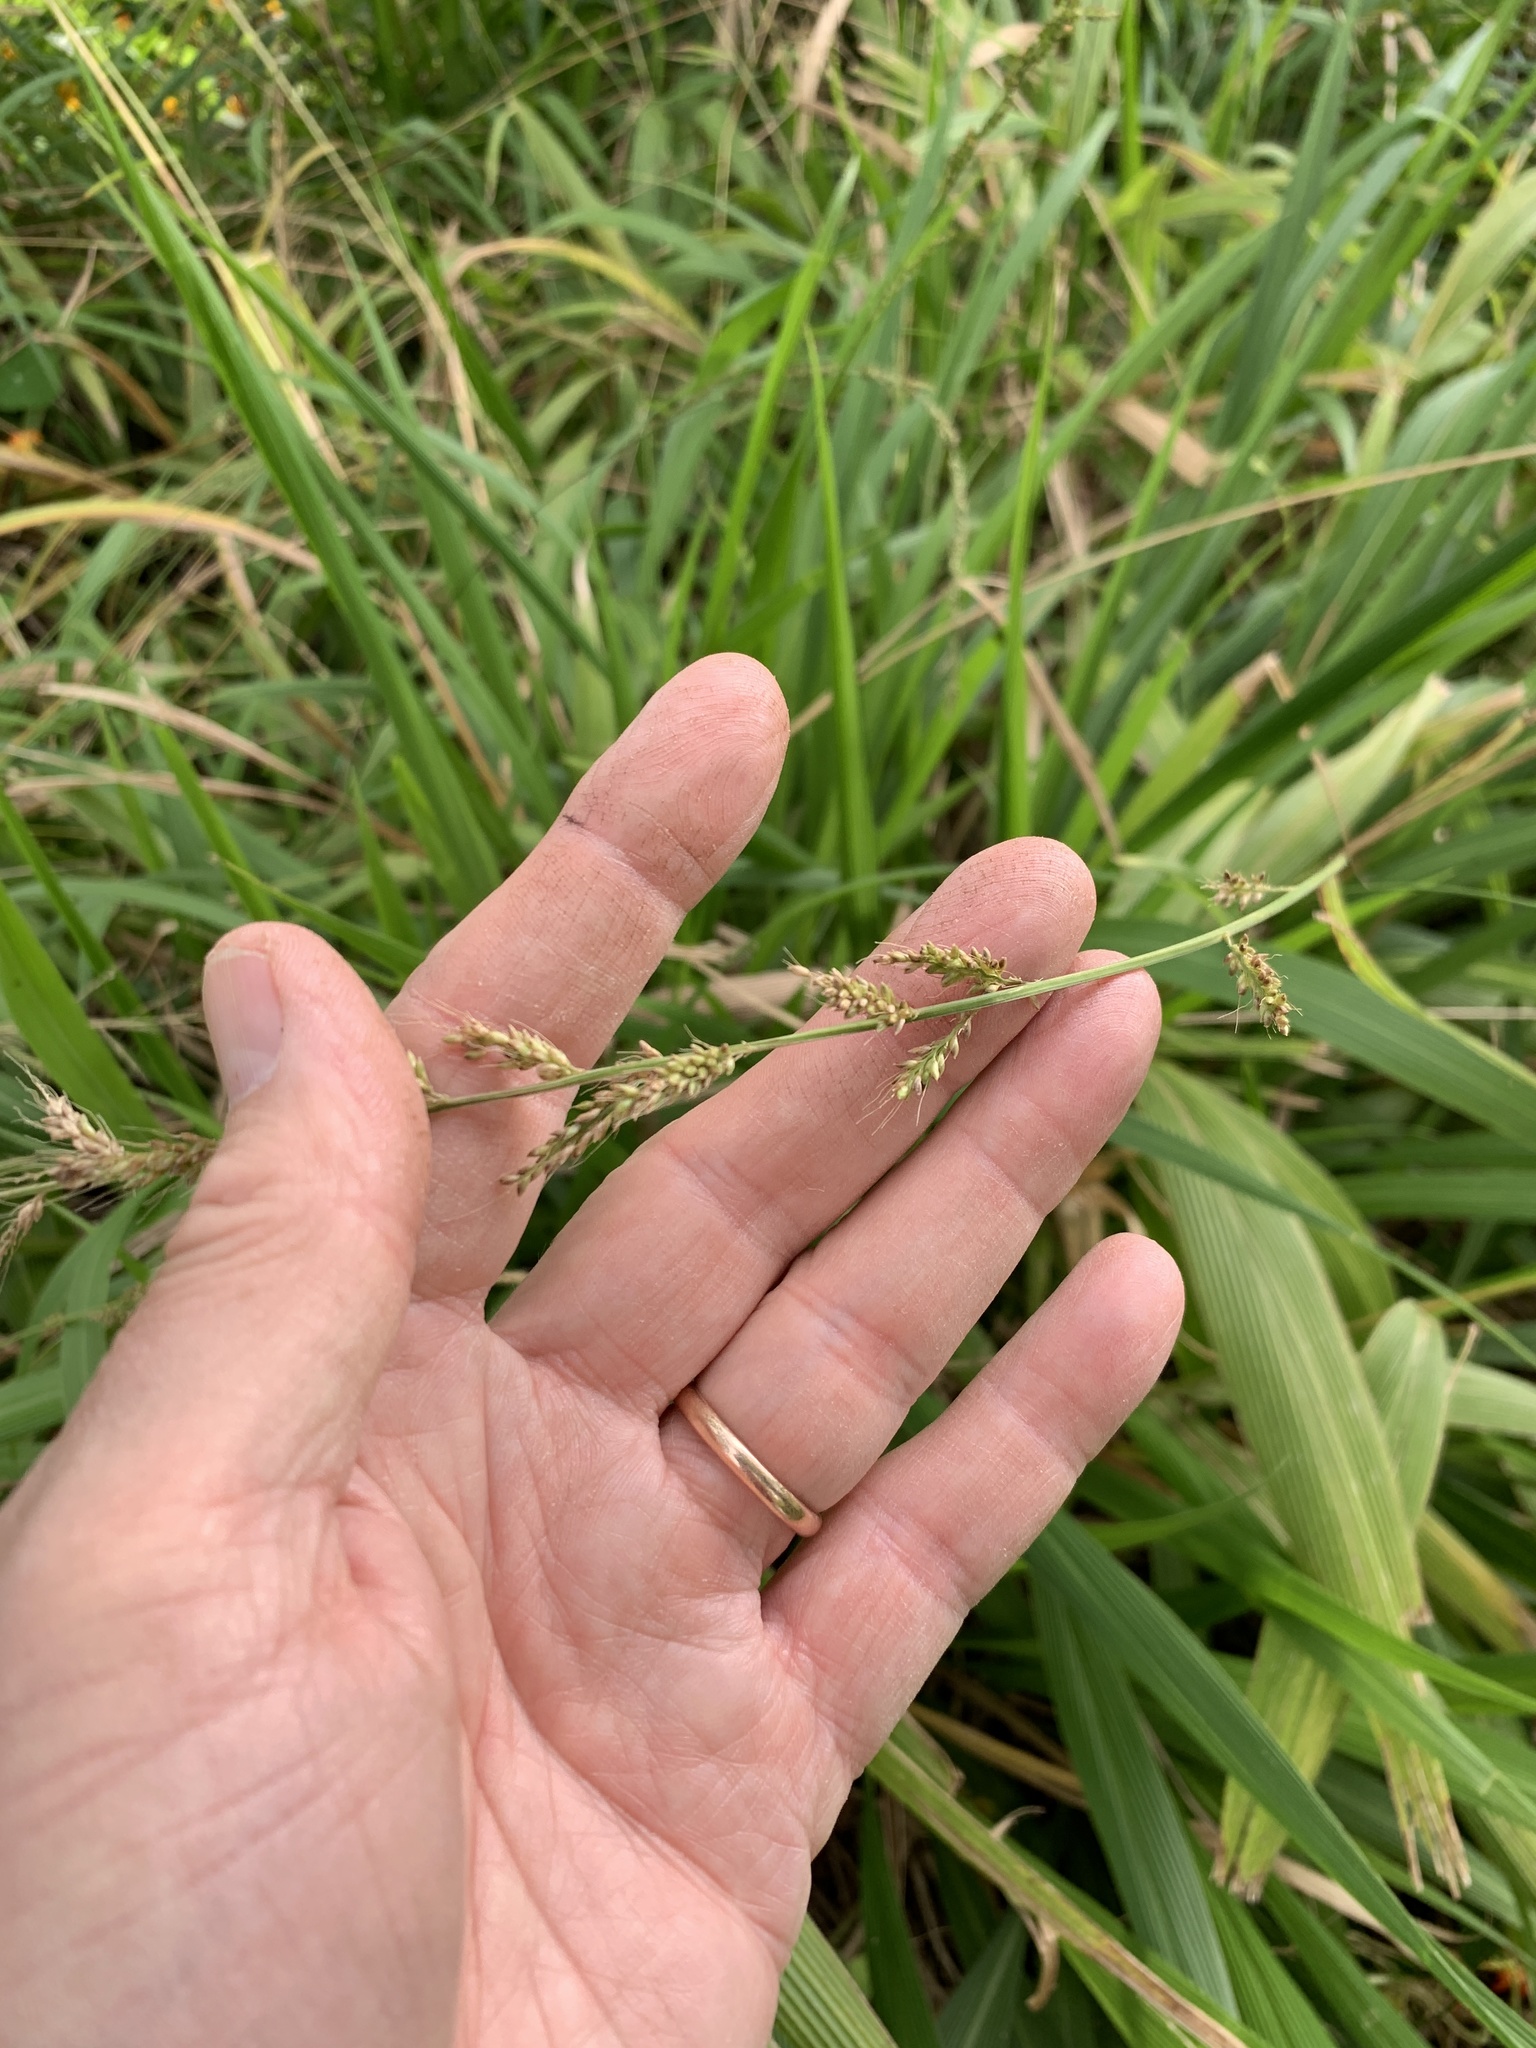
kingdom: Plantae
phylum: Tracheophyta
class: Liliopsida
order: Poales
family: Poaceae
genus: Setaria
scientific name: Setaria megaphylla
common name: Bigleaf bristlegrass
